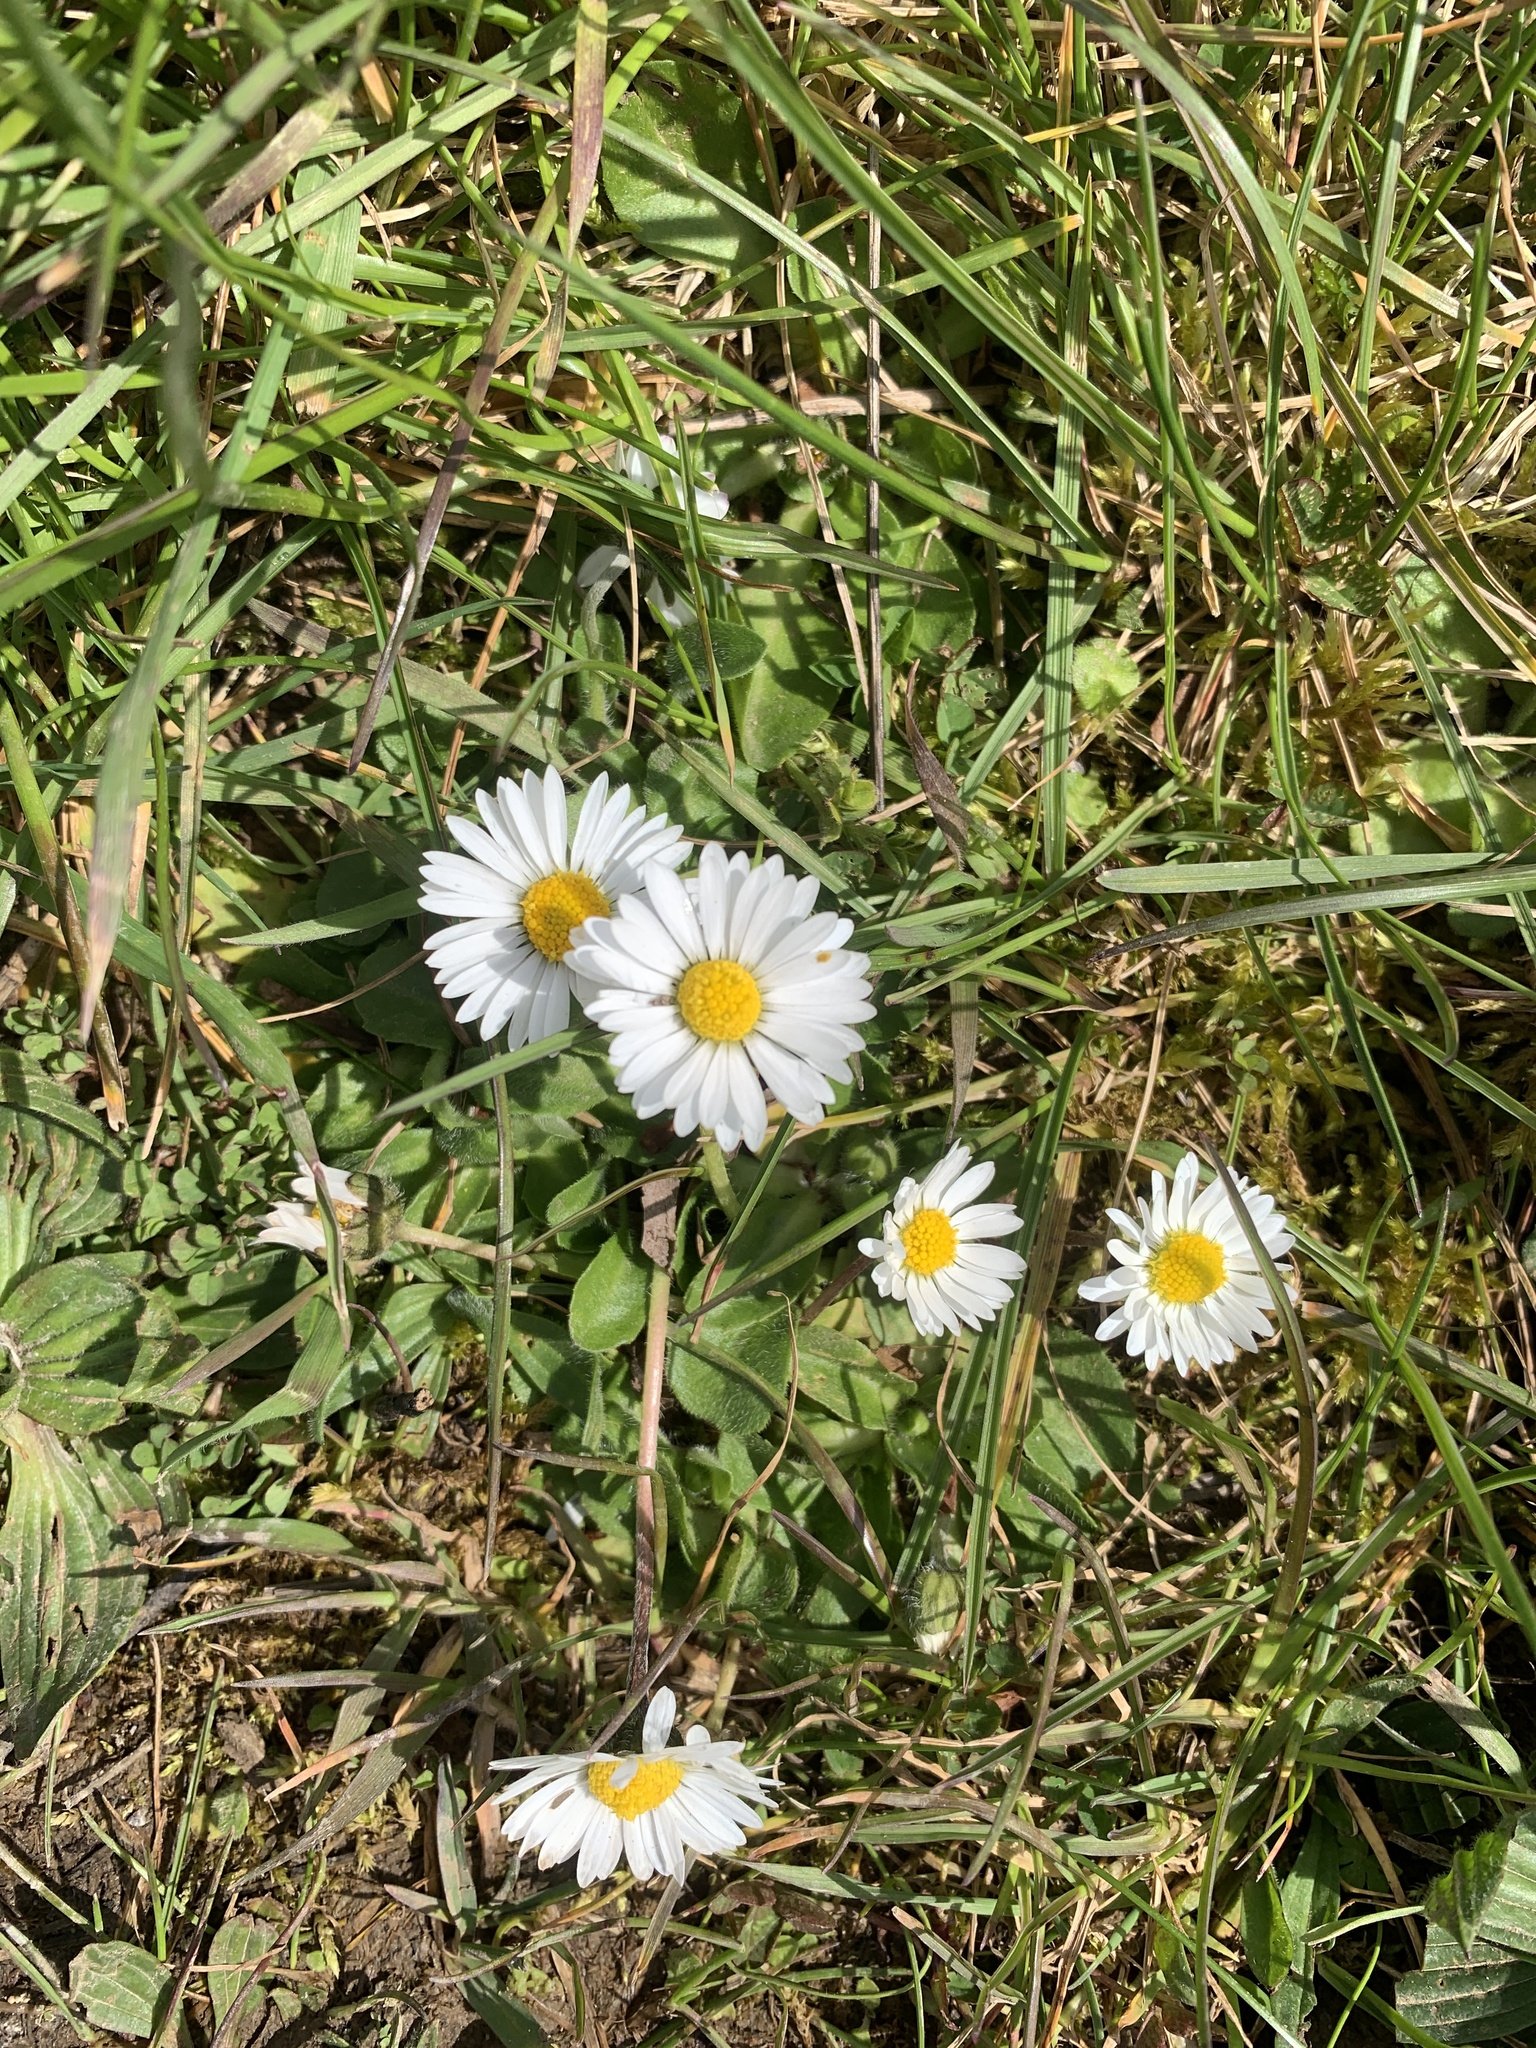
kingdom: Plantae
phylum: Tracheophyta
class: Magnoliopsida
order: Asterales
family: Asteraceae
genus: Bellis
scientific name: Bellis perennis
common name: Lawndaisy
